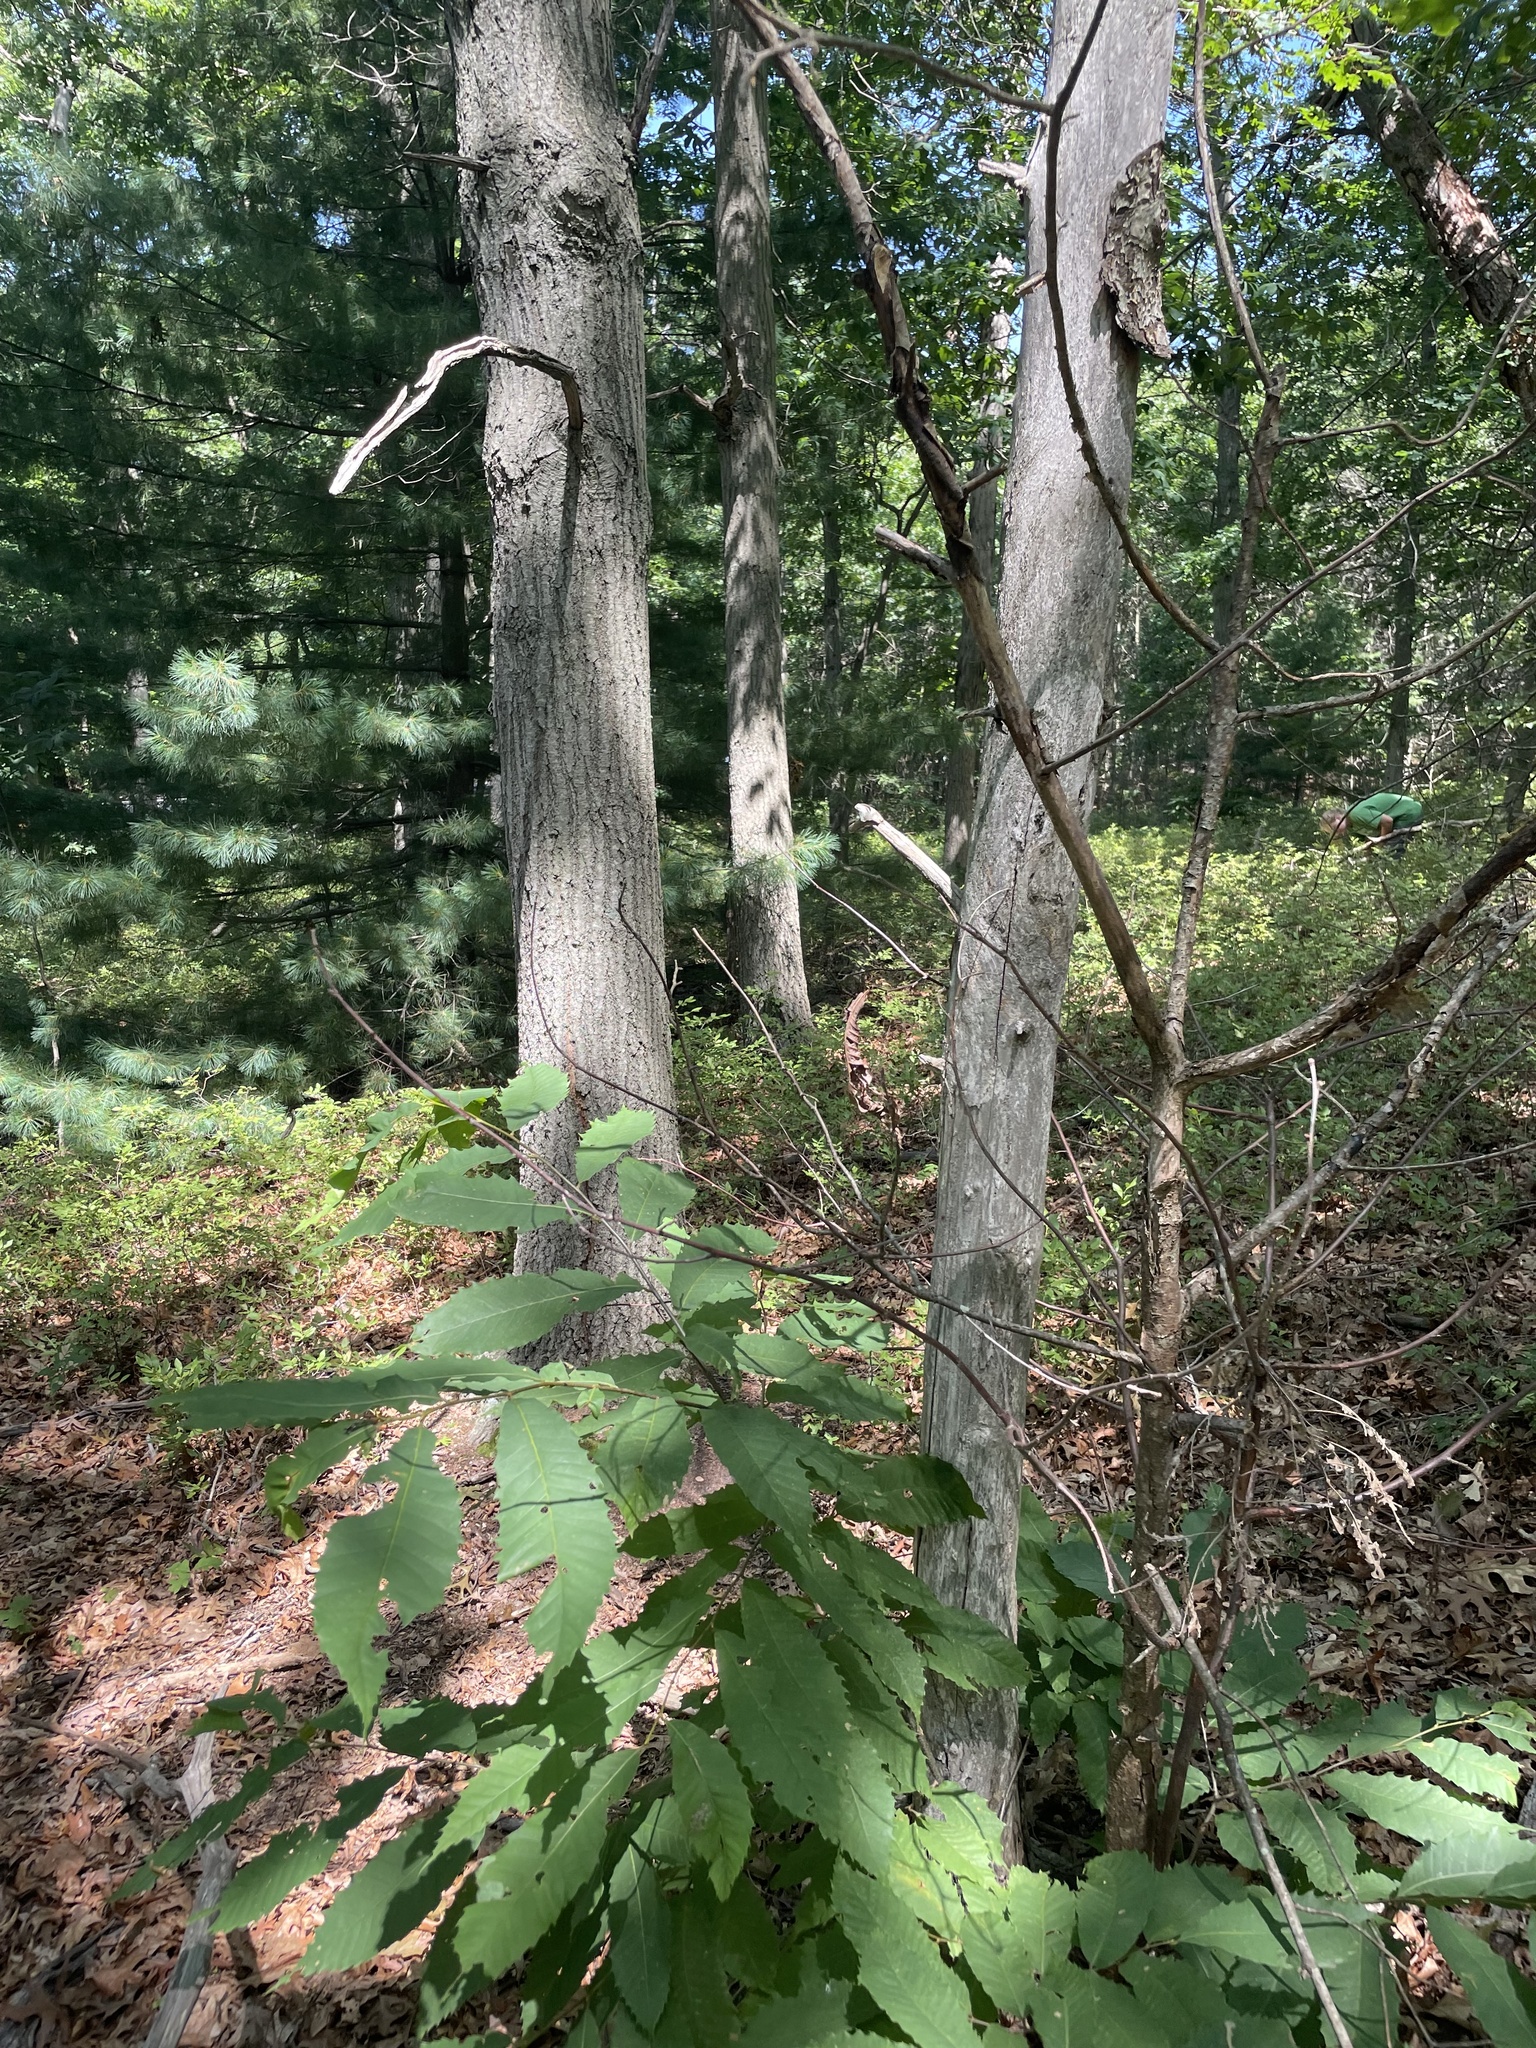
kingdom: Plantae
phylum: Tracheophyta
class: Magnoliopsida
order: Fagales
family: Fagaceae
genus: Castanea
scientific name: Castanea dentata
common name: American chestnut
